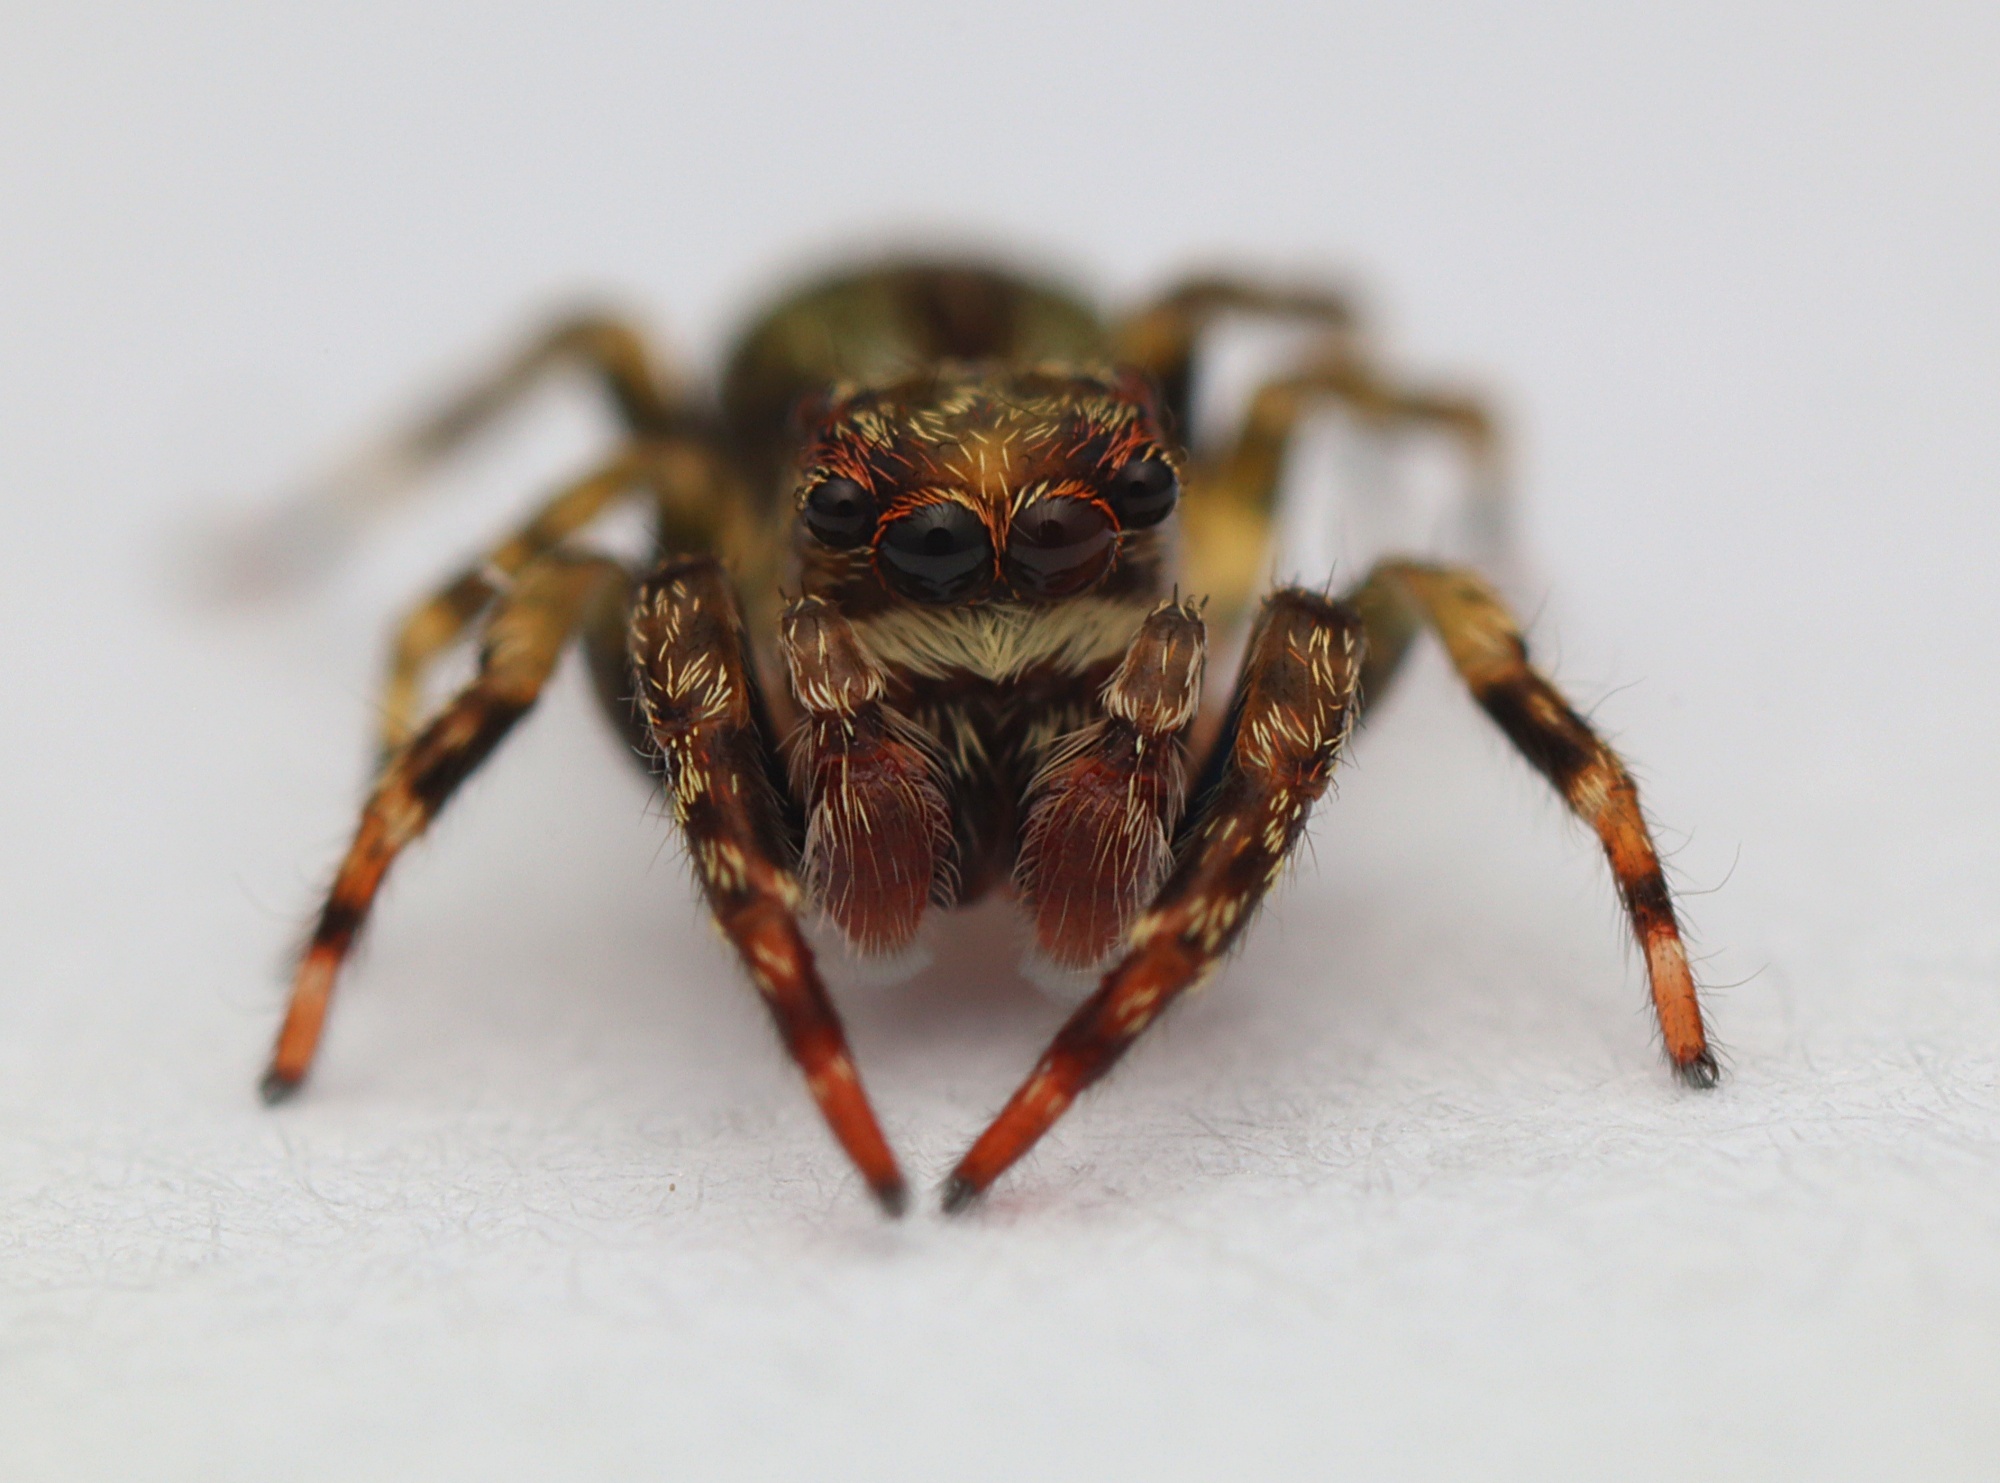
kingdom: Animalia
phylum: Arthropoda
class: Arachnida
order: Araneae
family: Salticidae
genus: Hinewaia
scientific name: Hinewaia embolica
